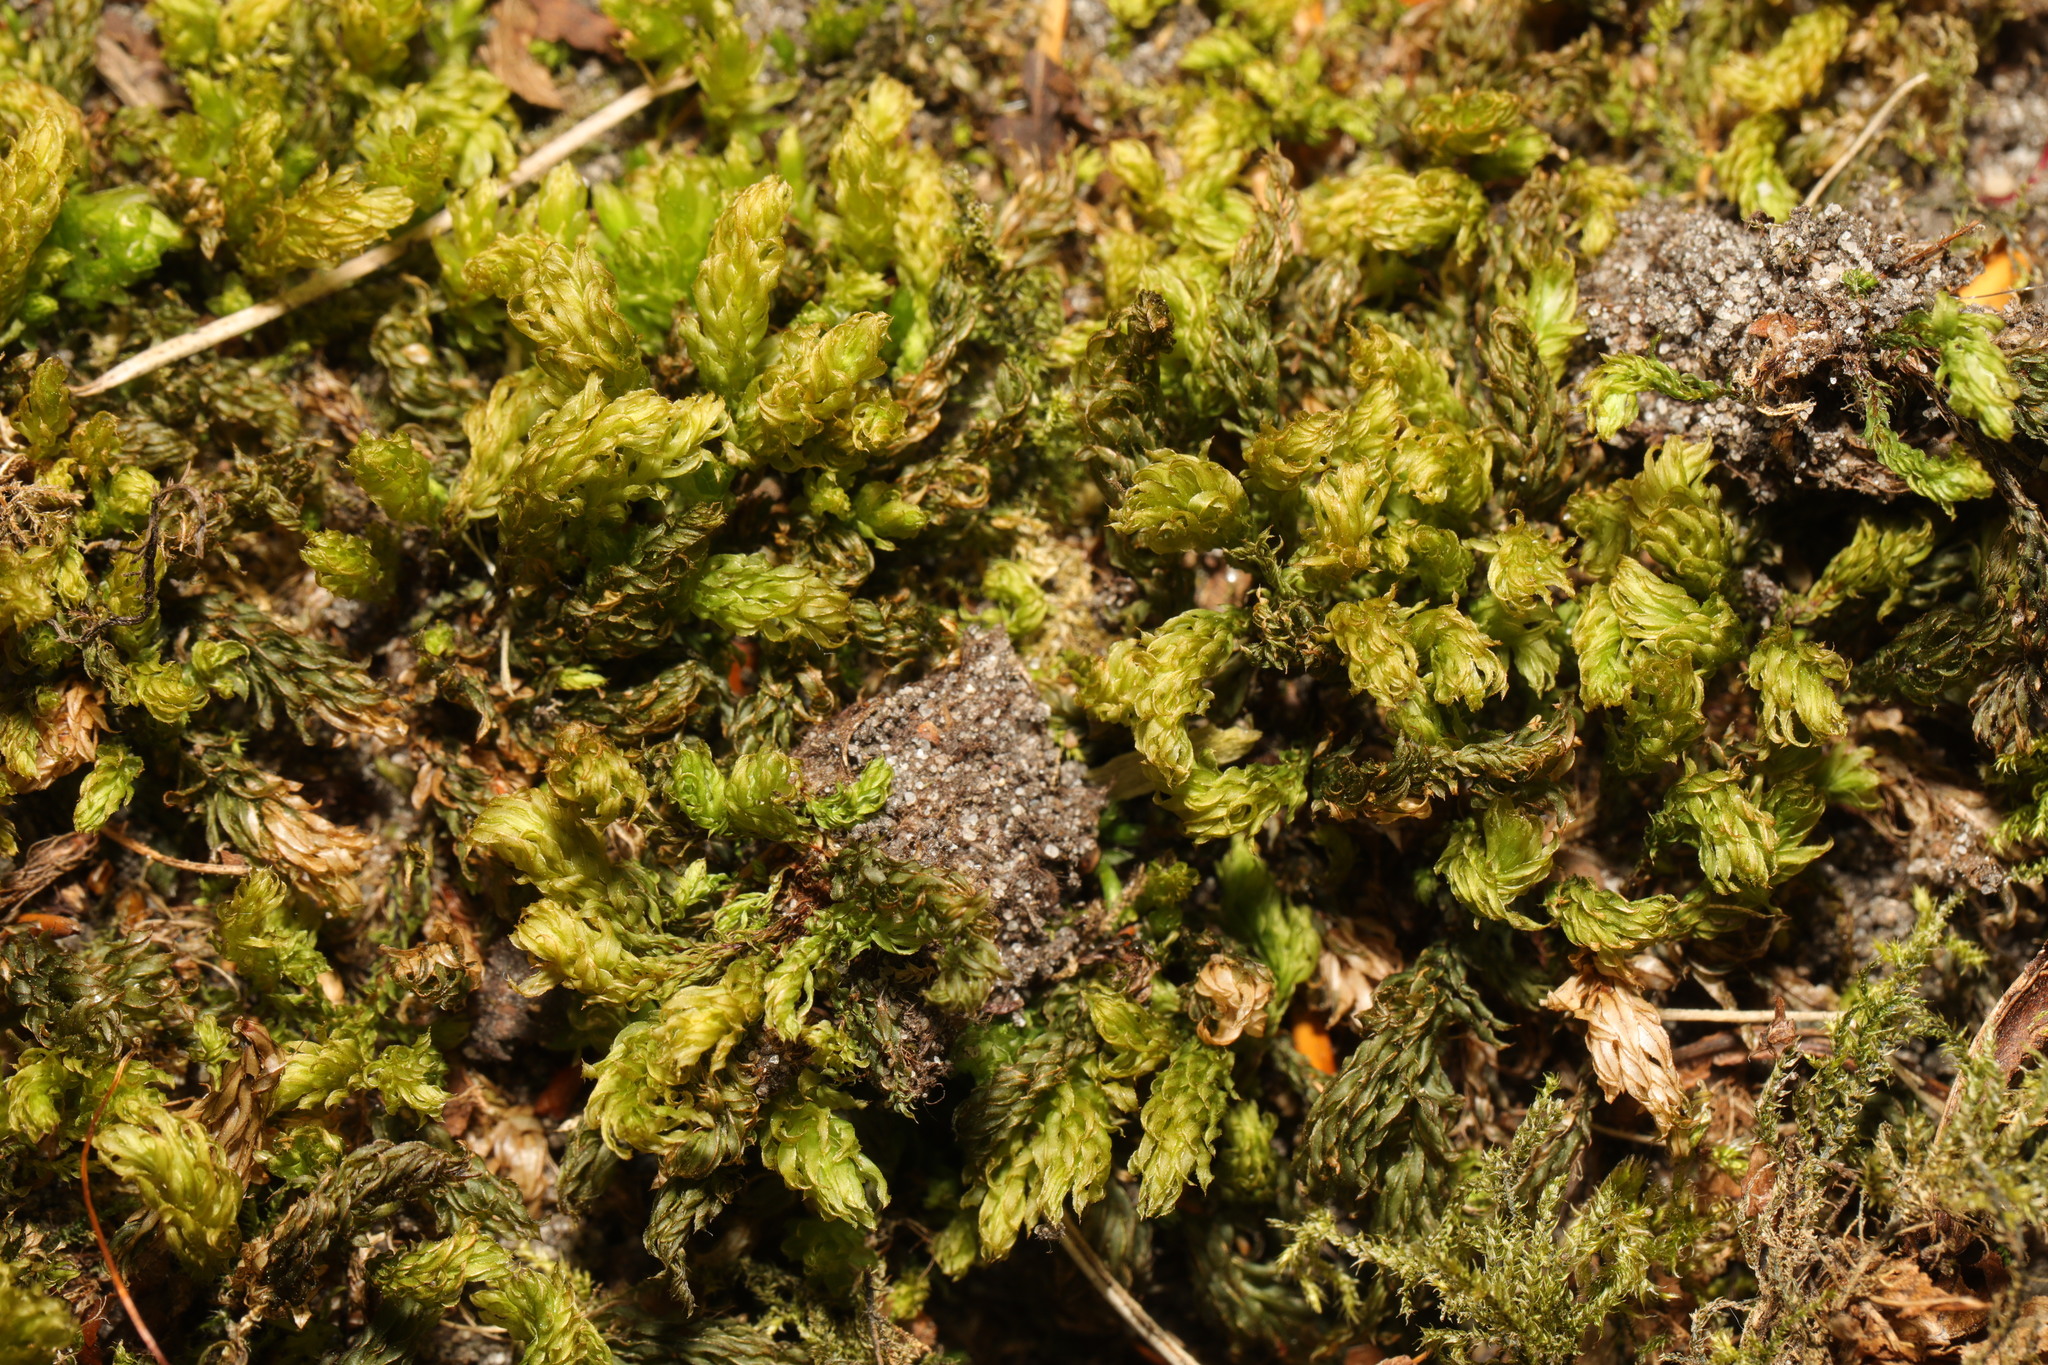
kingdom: Plantae
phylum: Bryophyta
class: Bryopsida
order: Bryales
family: Mniaceae
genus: Mnium
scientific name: Mnium hornum
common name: Swan's-neck leafy moss
